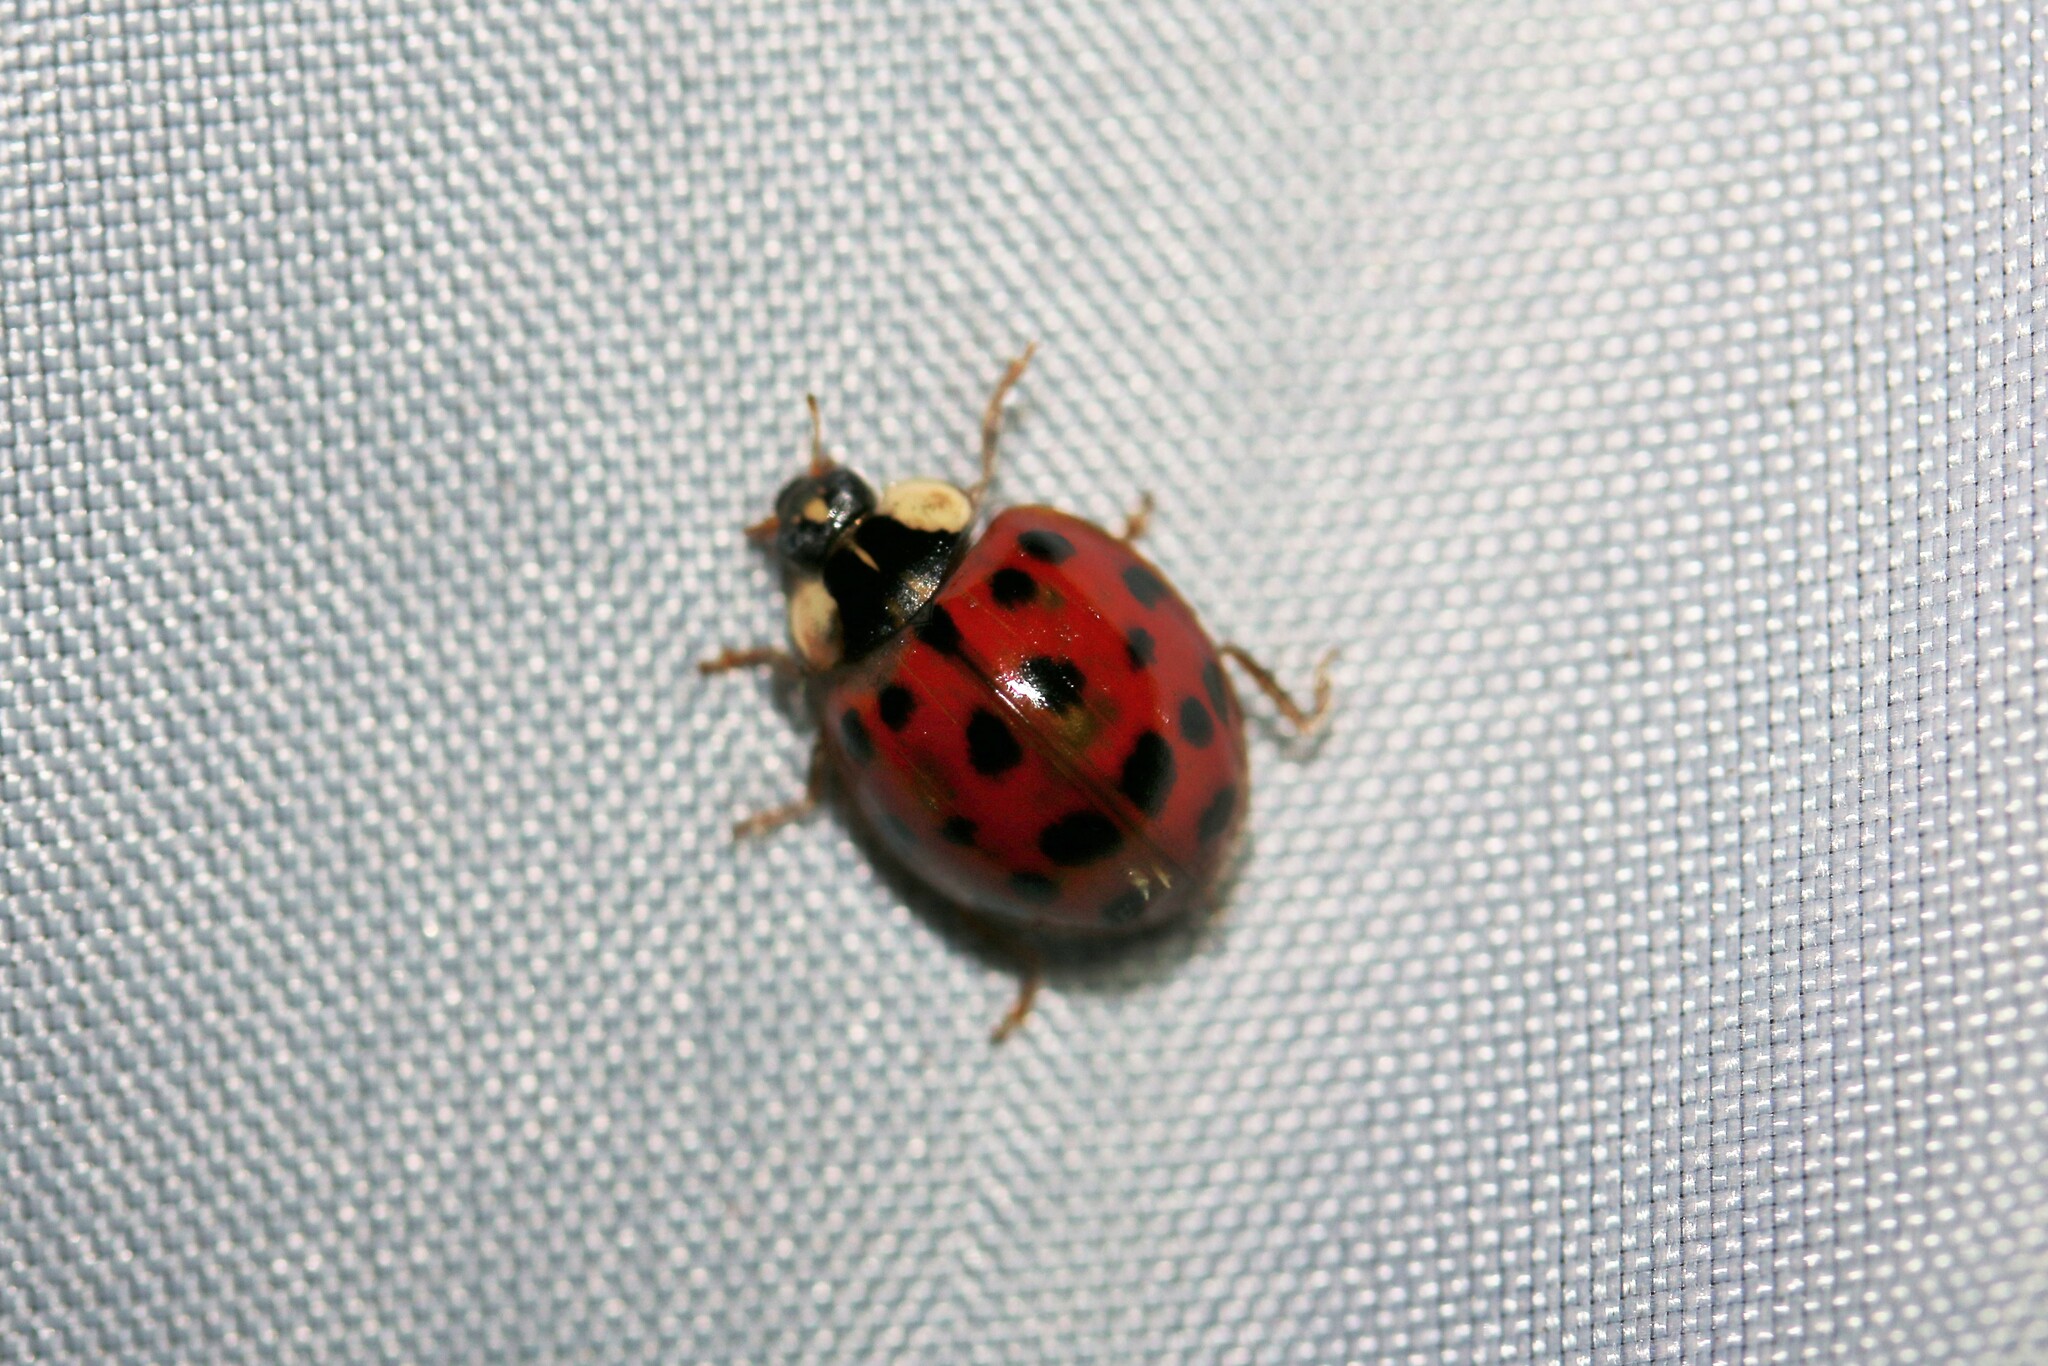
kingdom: Animalia
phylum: Arthropoda
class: Insecta
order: Coleoptera
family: Coccinellidae
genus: Harmonia
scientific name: Harmonia axyridis
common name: Harlequin ladybird
